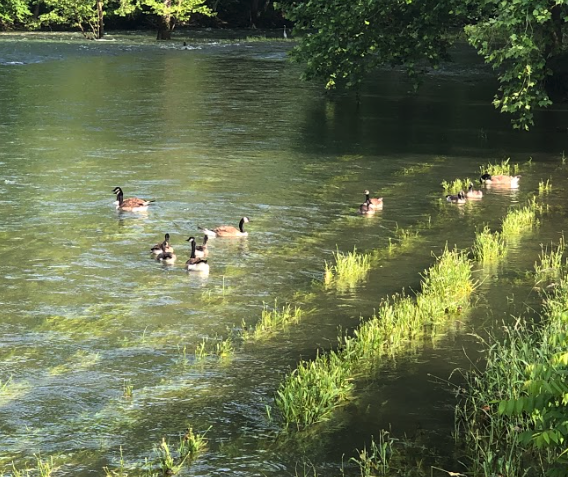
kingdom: Animalia
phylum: Chordata
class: Aves
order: Anseriformes
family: Anatidae
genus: Branta
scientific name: Branta canadensis
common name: Canada goose
